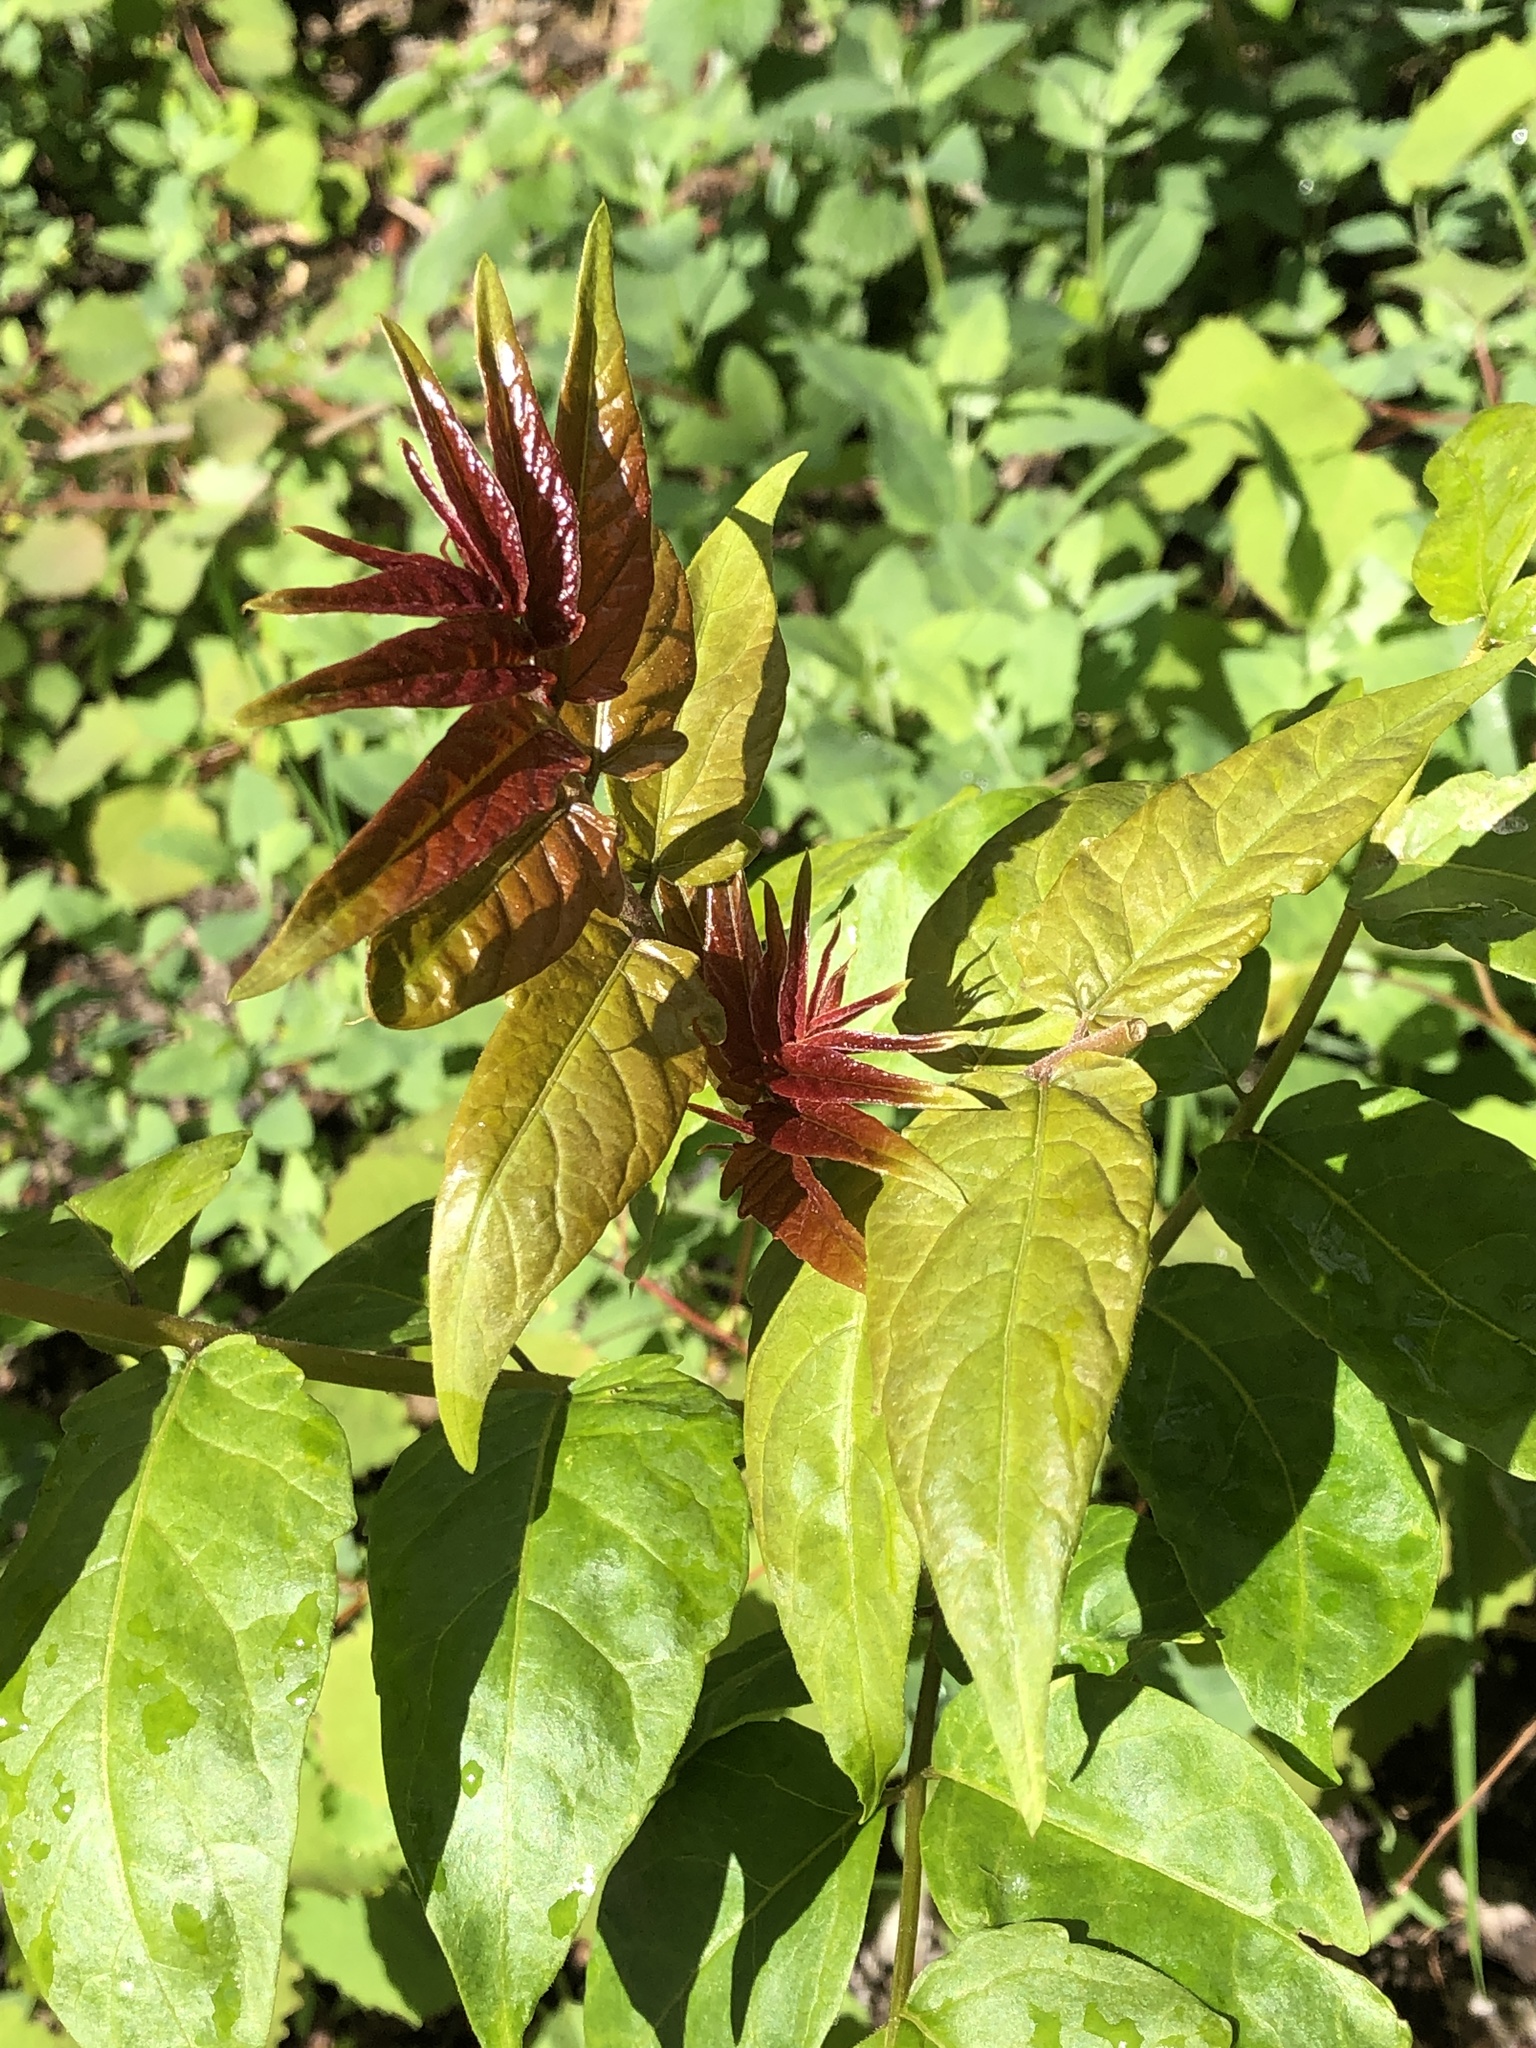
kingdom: Plantae
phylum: Tracheophyta
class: Magnoliopsida
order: Sapindales
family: Simaroubaceae
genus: Ailanthus
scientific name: Ailanthus altissima
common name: Tree-of-heaven
